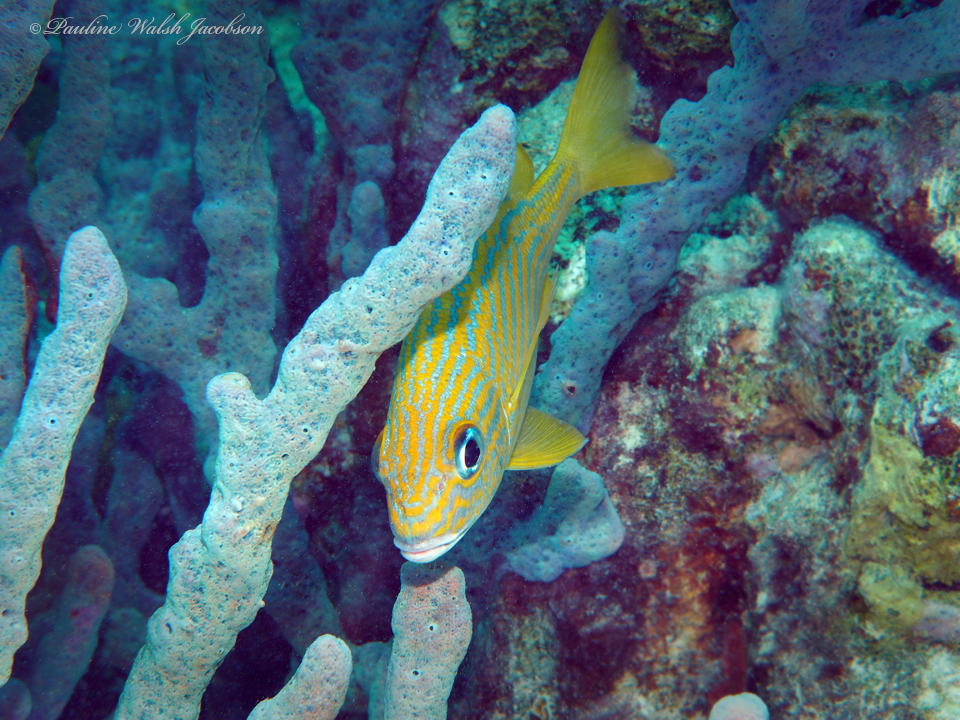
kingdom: Animalia
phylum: Chordata
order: Perciformes
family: Haemulidae
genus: Haemulon
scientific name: Haemulon flavolineatum
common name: French grunt
